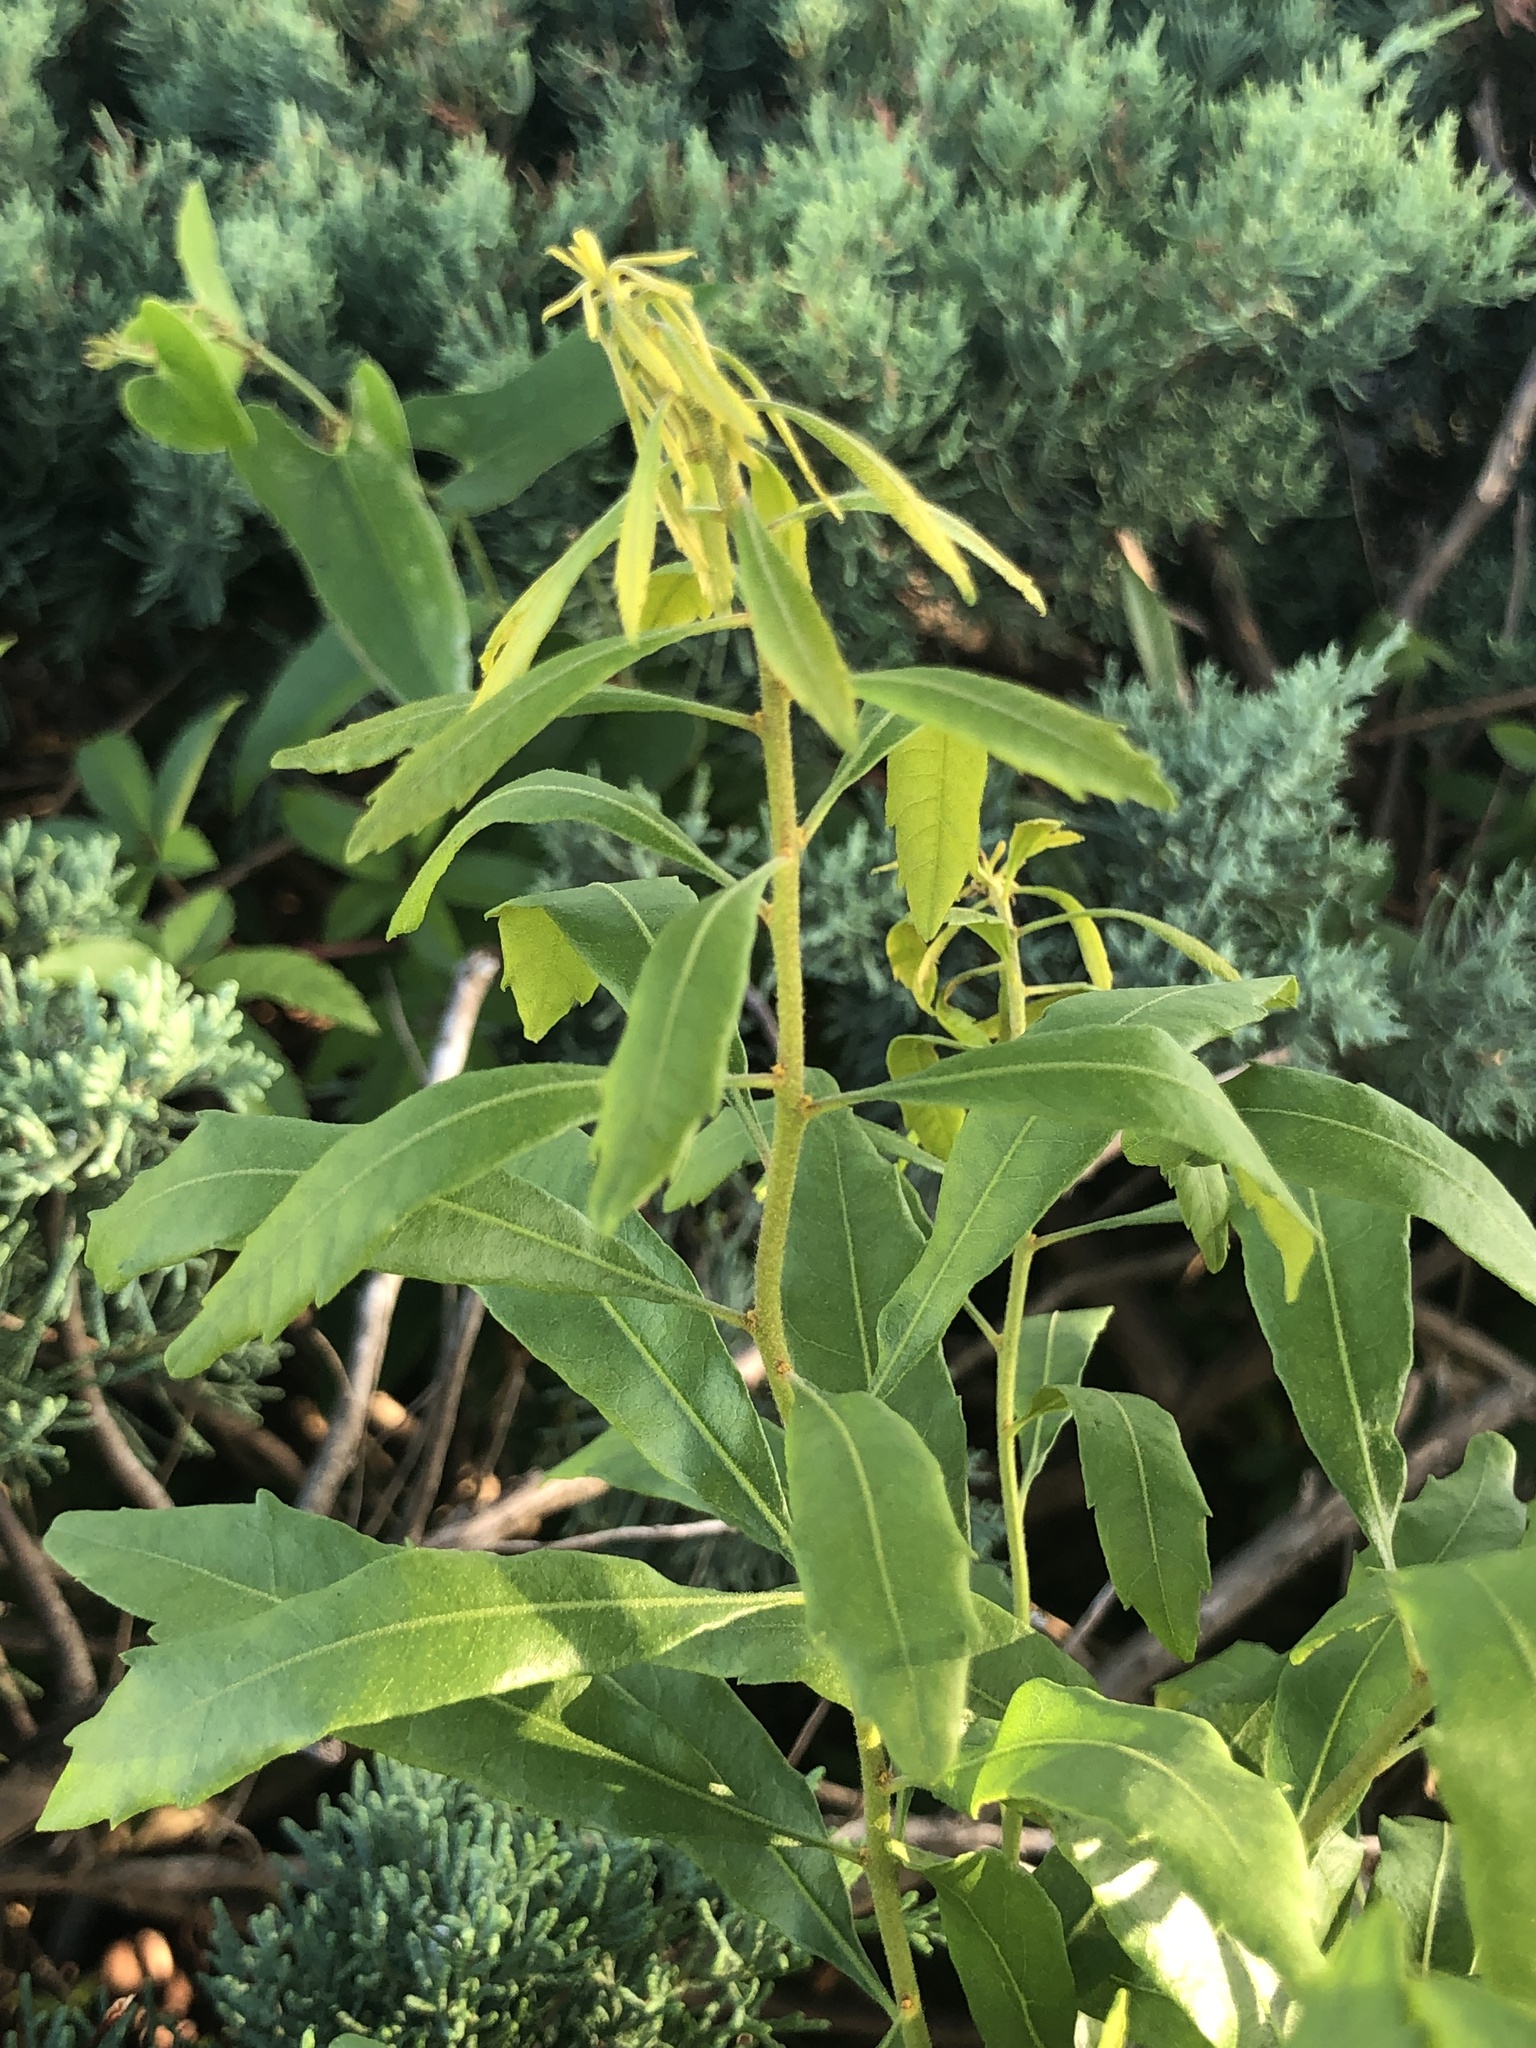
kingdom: Plantae
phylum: Tracheophyta
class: Magnoliopsida
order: Fagales
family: Myricaceae
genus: Morella
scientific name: Morella cerifera
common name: Wax myrtle
